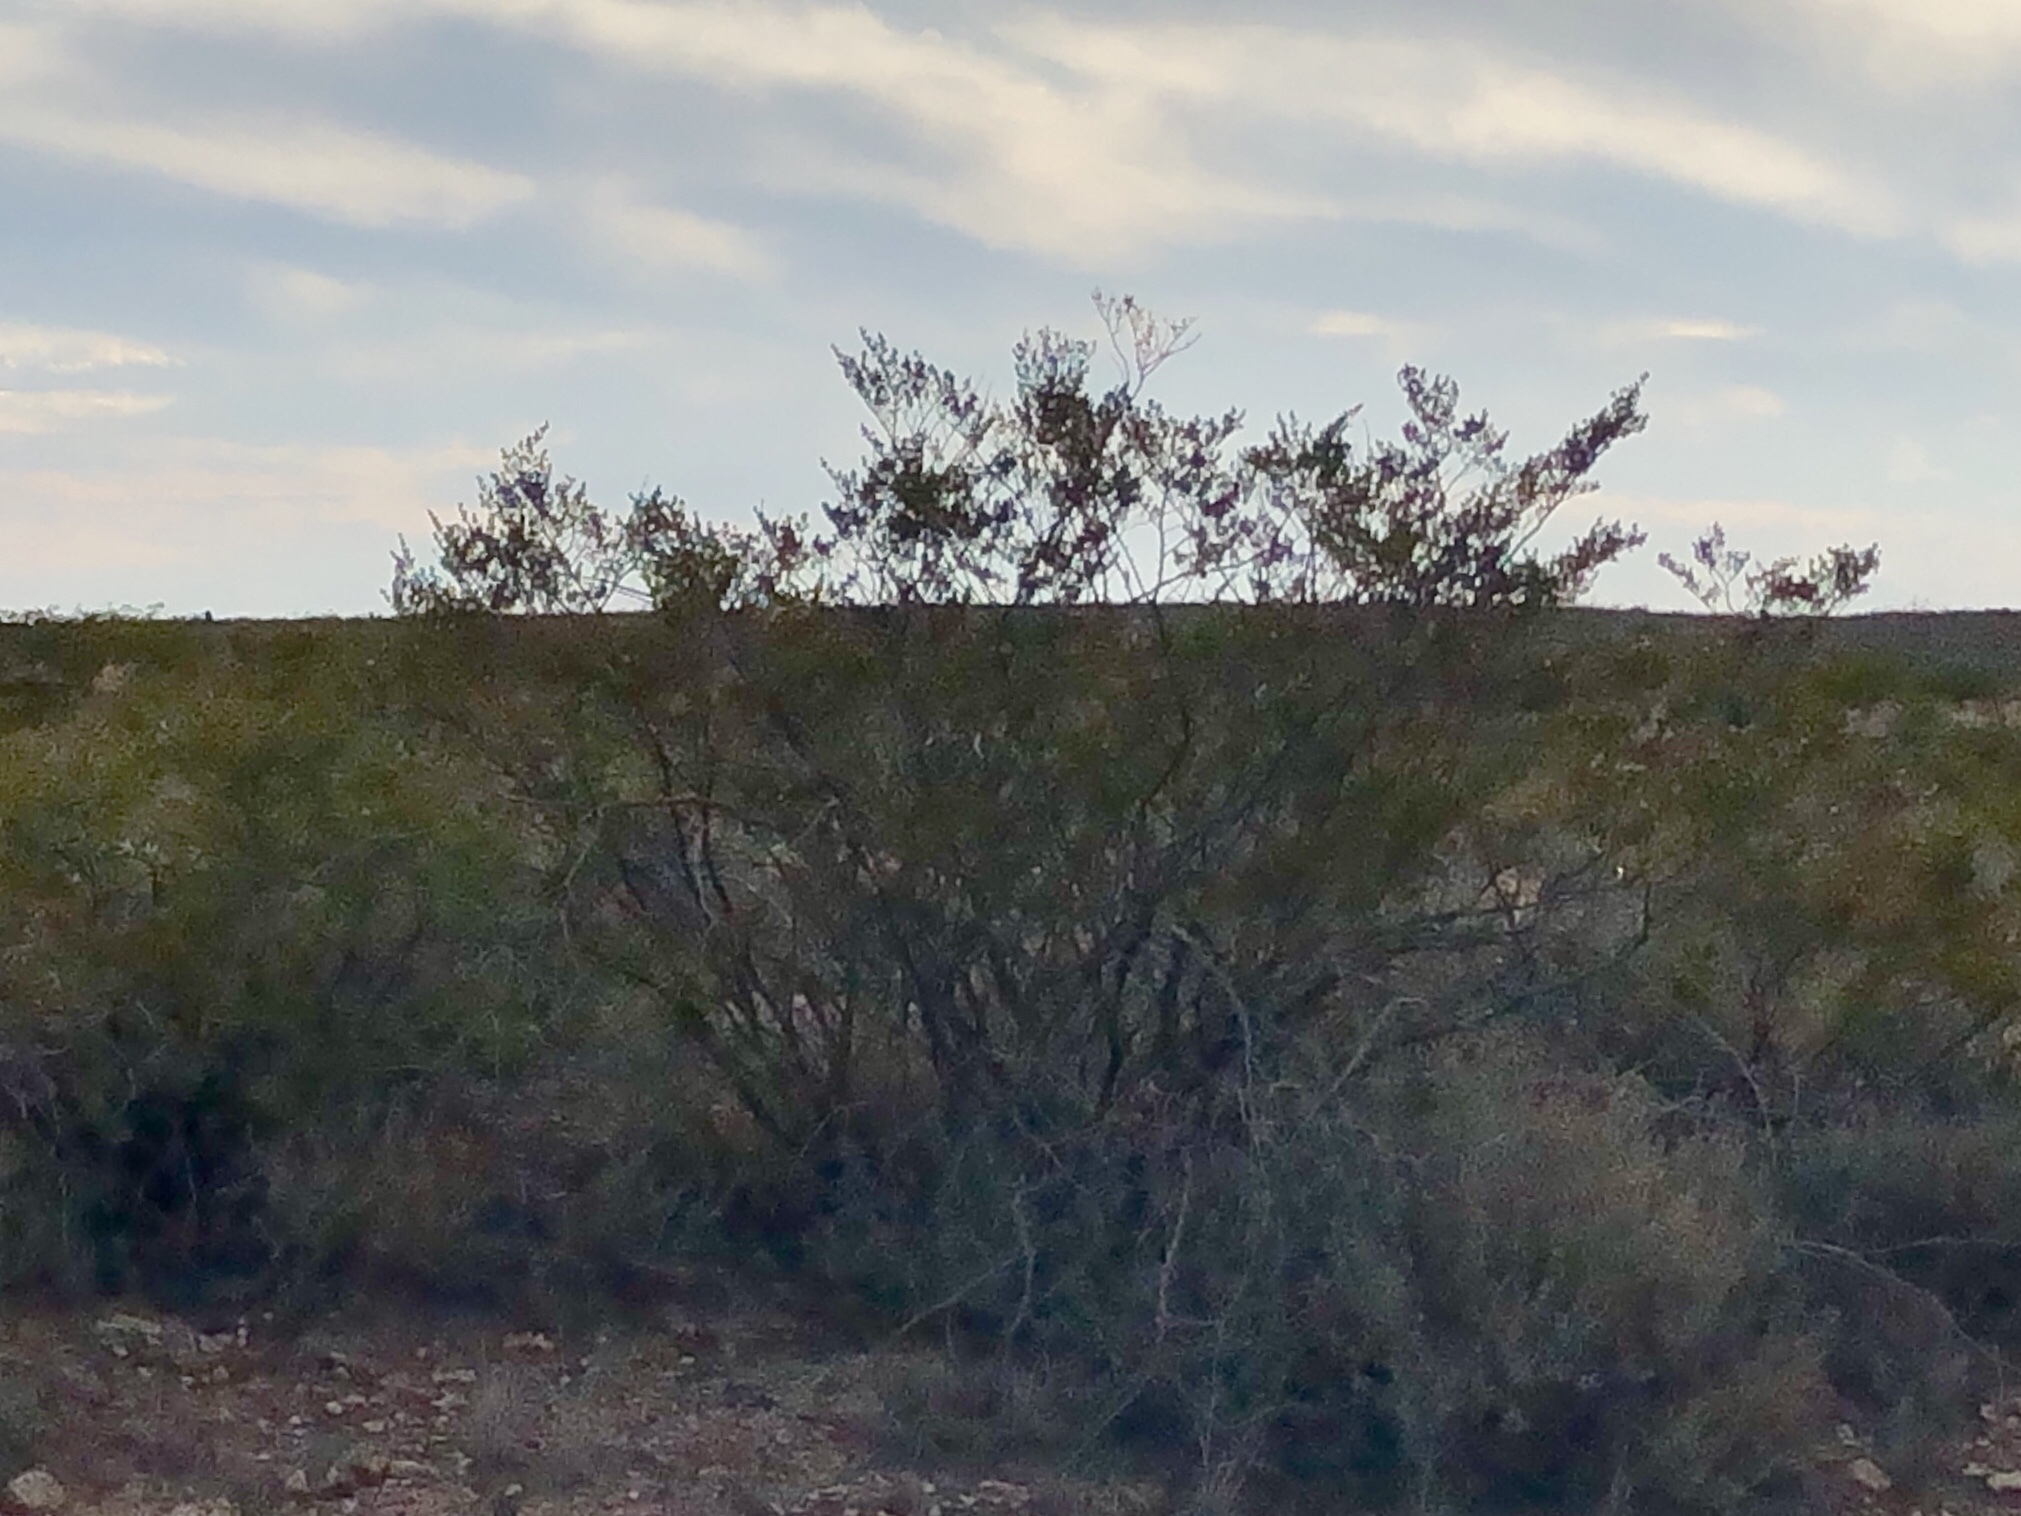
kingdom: Plantae
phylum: Tracheophyta
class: Magnoliopsida
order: Zygophyllales
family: Zygophyllaceae
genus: Larrea
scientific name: Larrea tridentata
